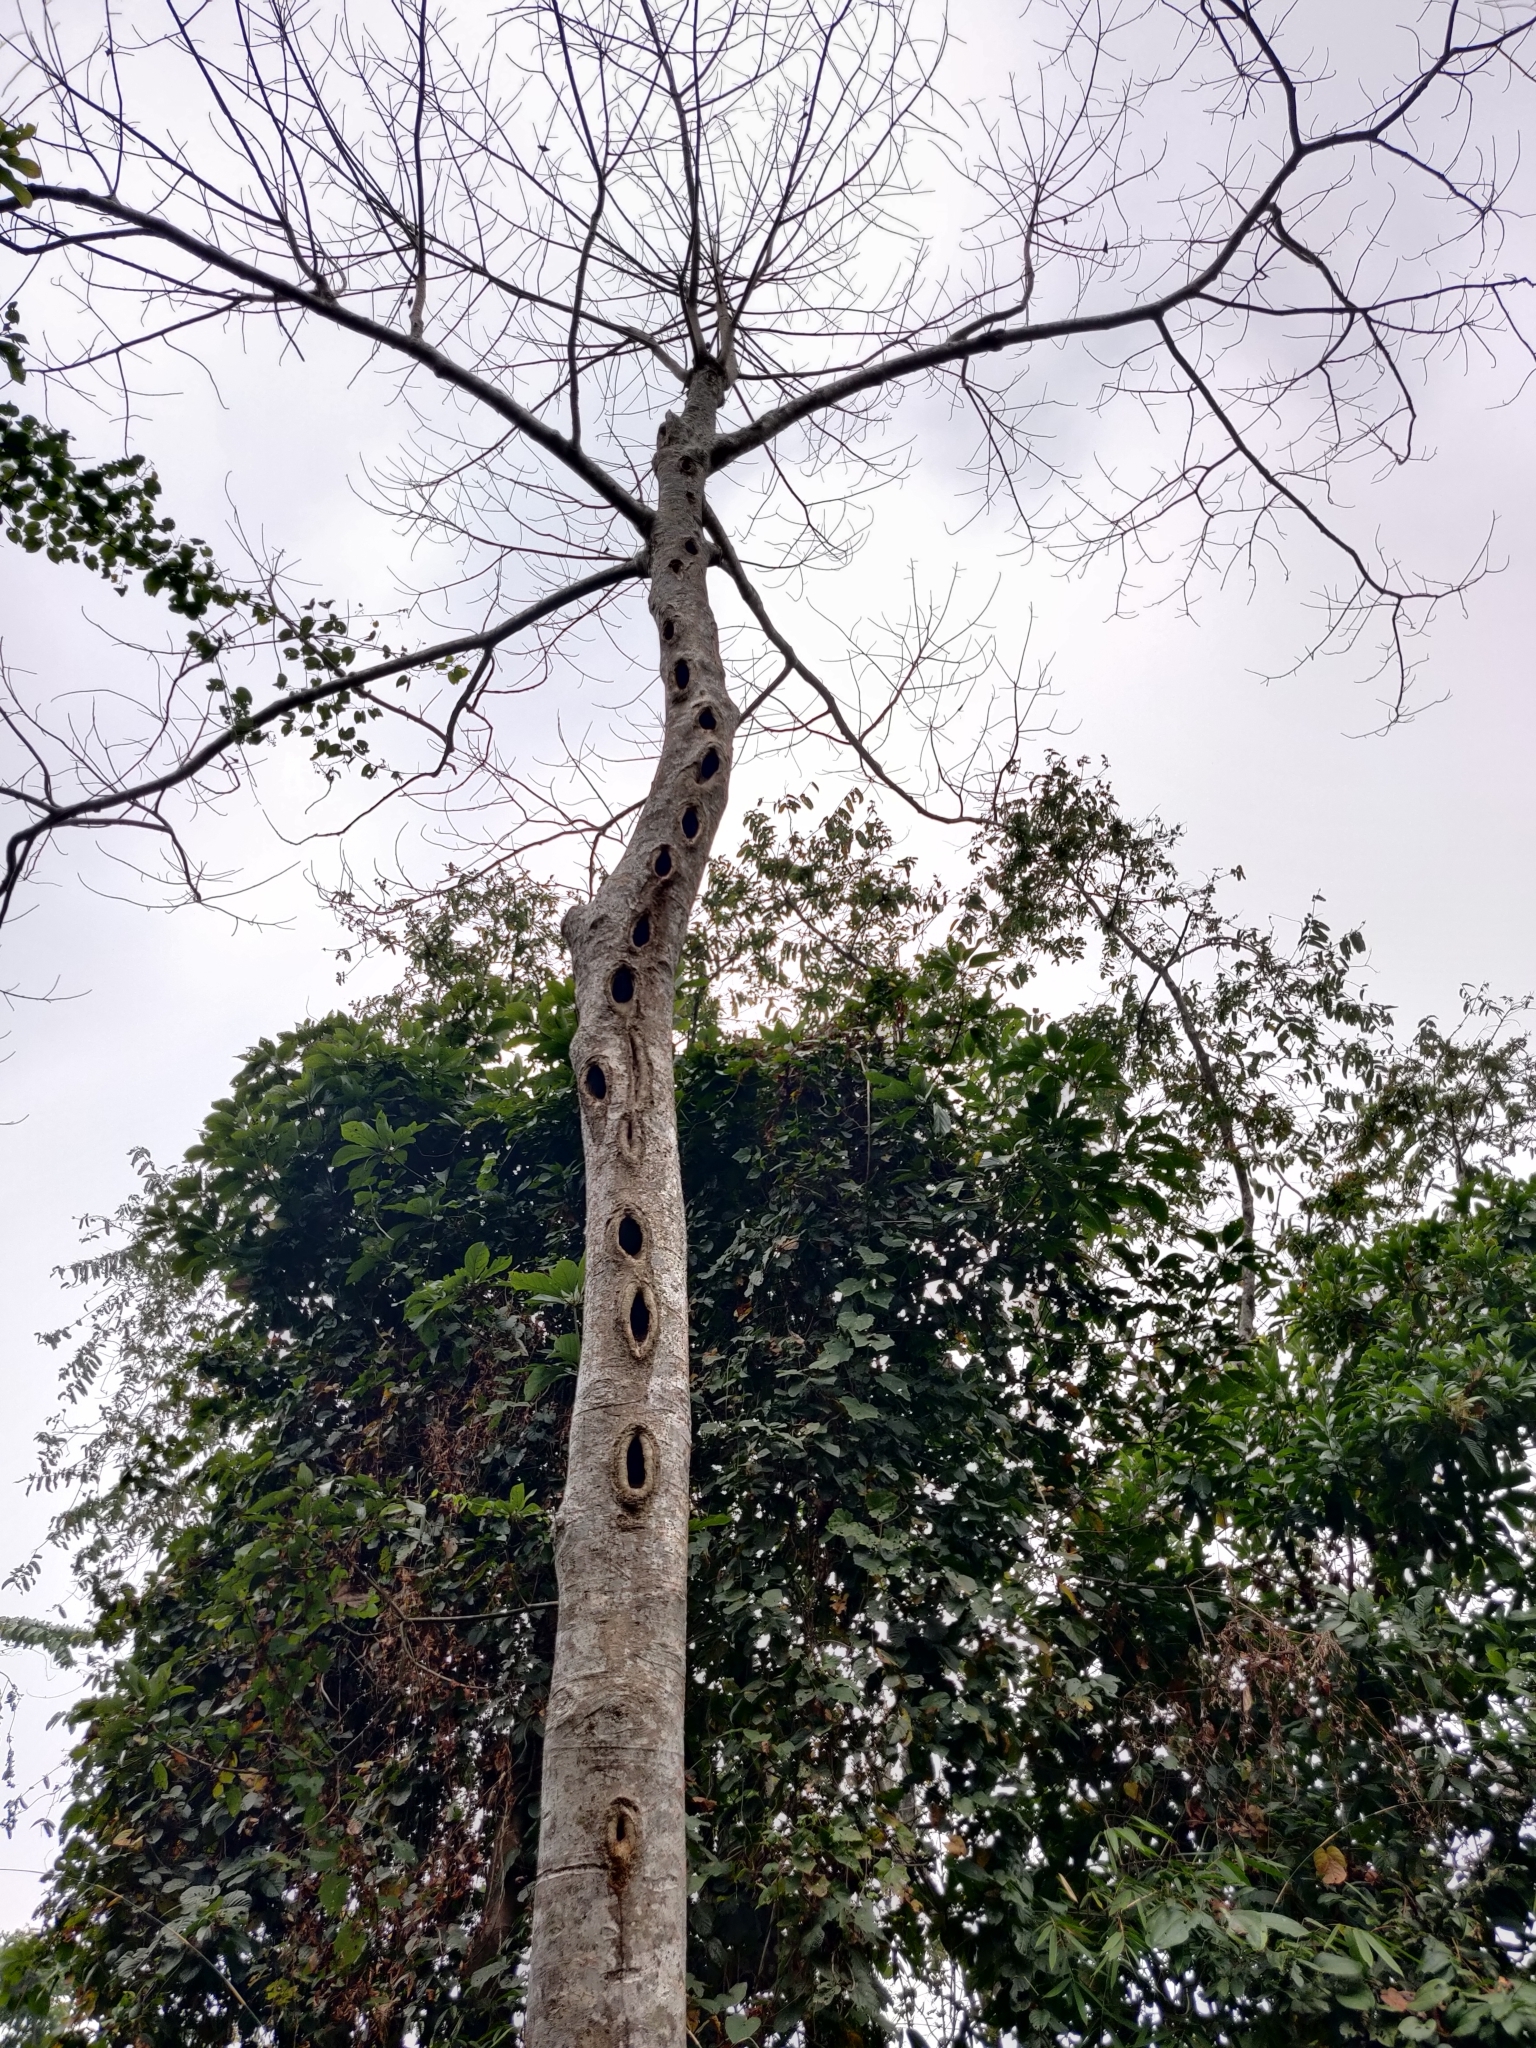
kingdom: Animalia
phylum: Chordata
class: Aves
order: Piciformes
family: Picidae
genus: Mulleripicus
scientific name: Mulleripicus pulverulentus
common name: Great slaty woodpecker
